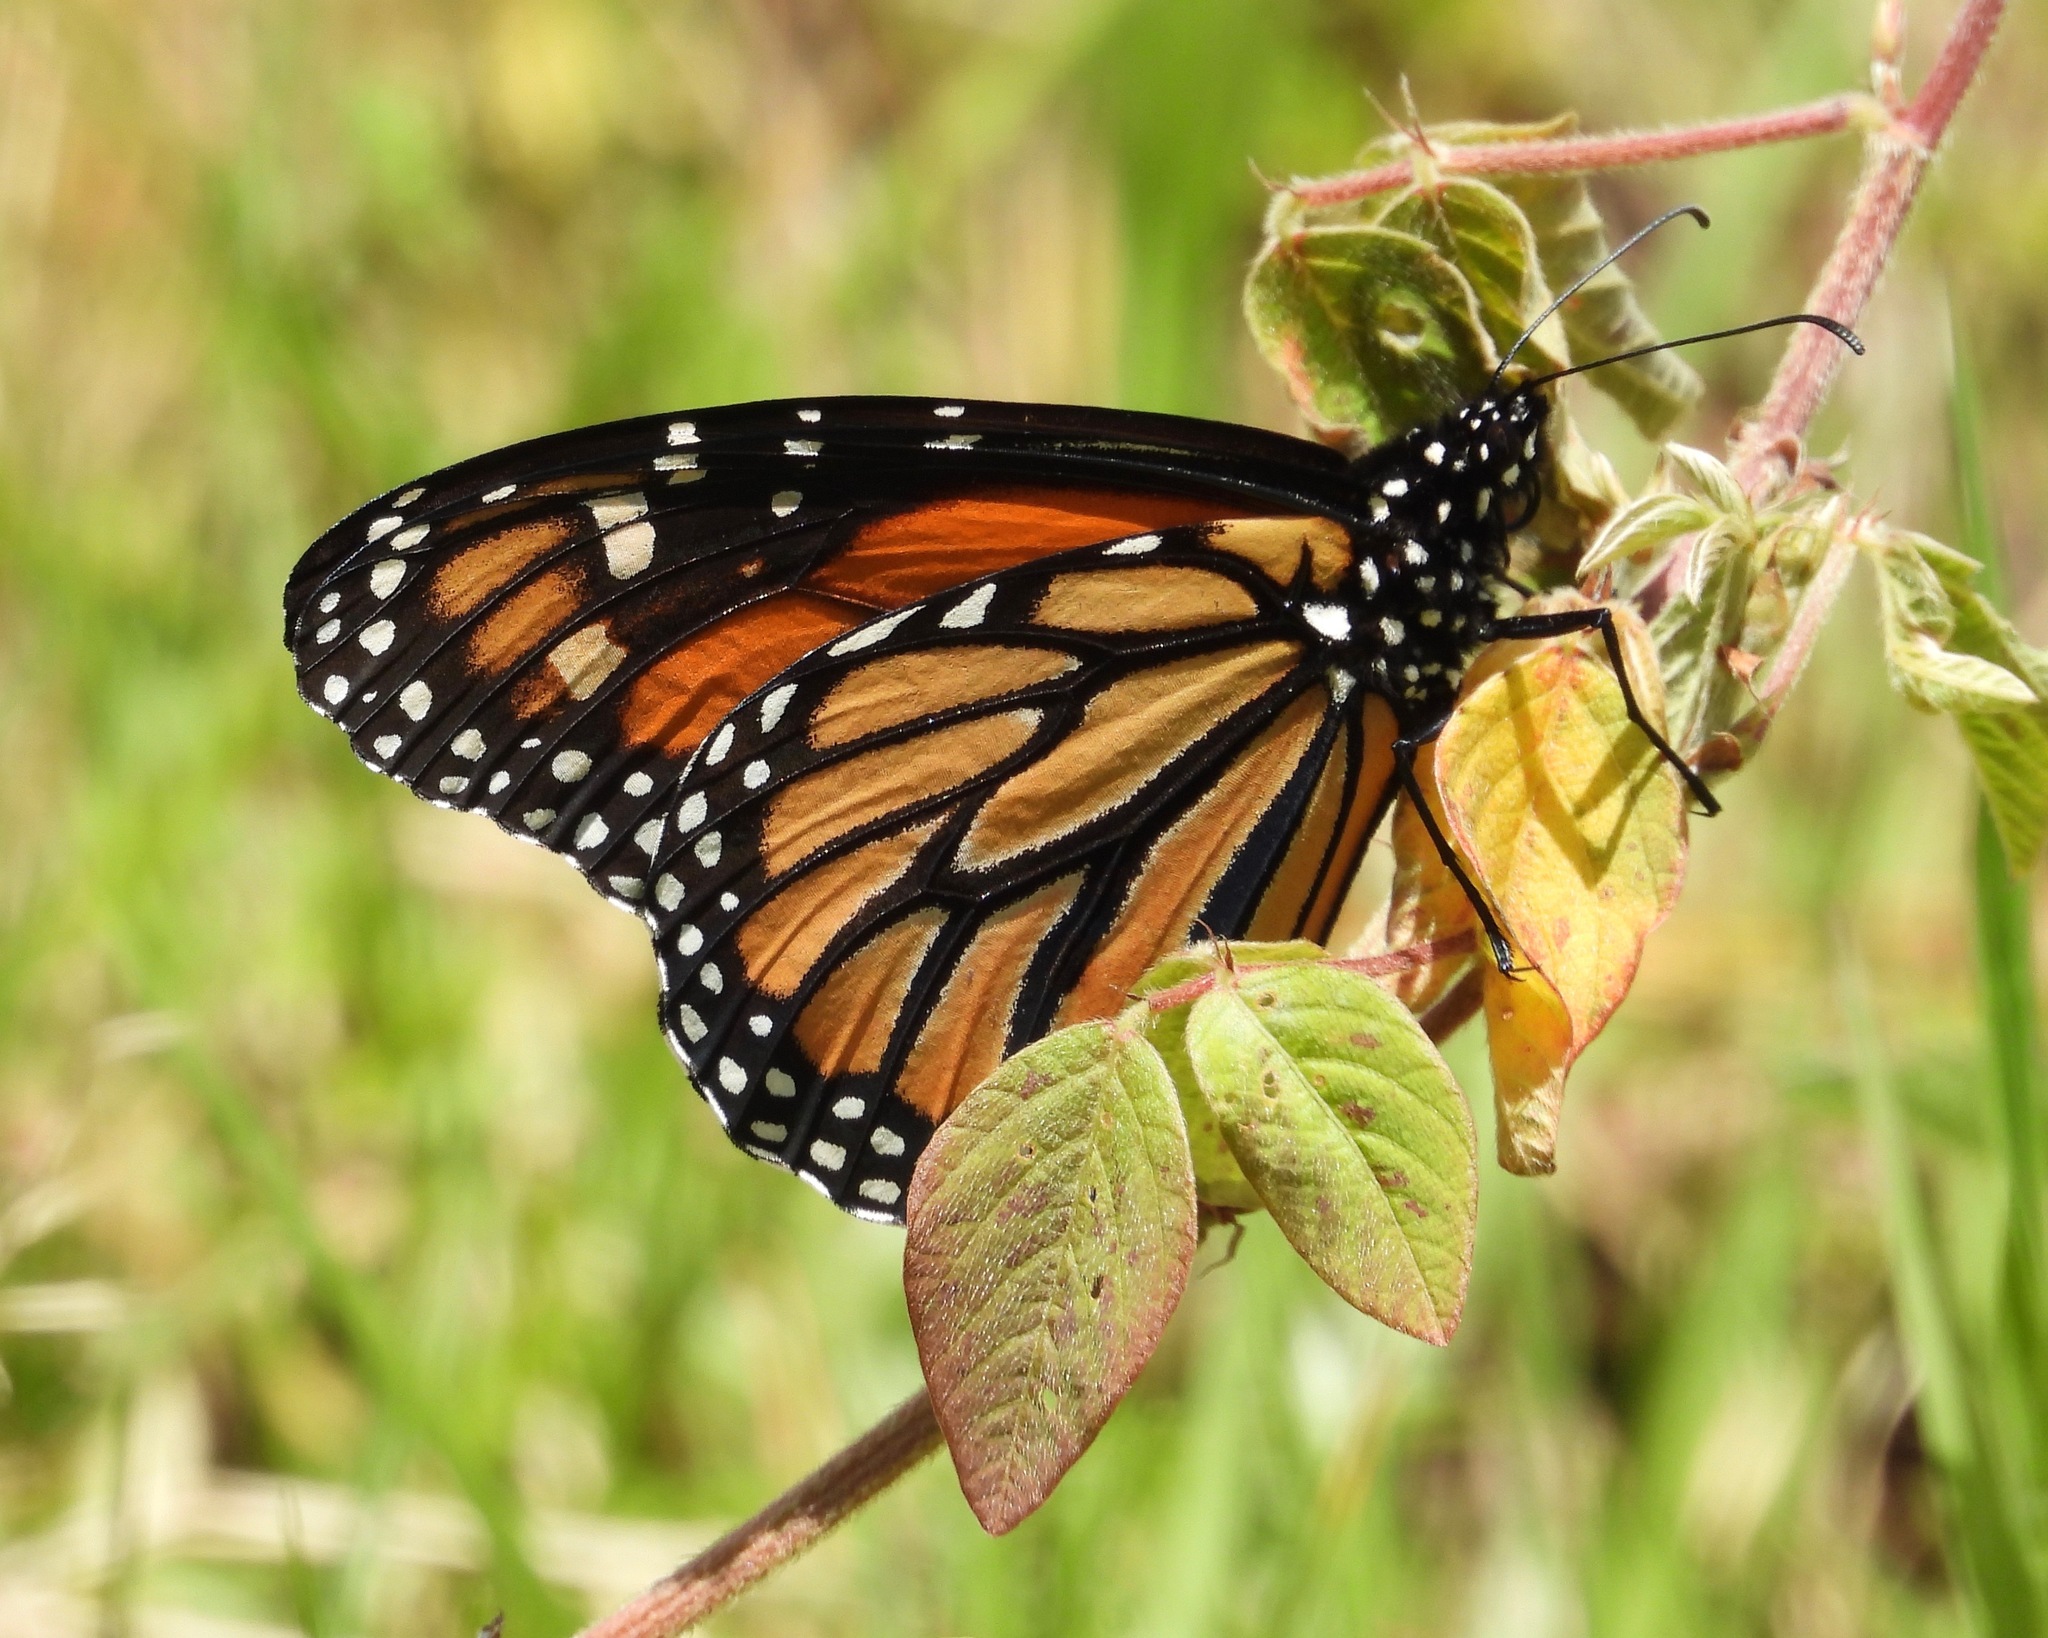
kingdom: Animalia
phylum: Arthropoda
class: Insecta
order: Lepidoptera
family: Nymphalidae
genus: Danaus
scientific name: Danaus plexippus
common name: Monarch
